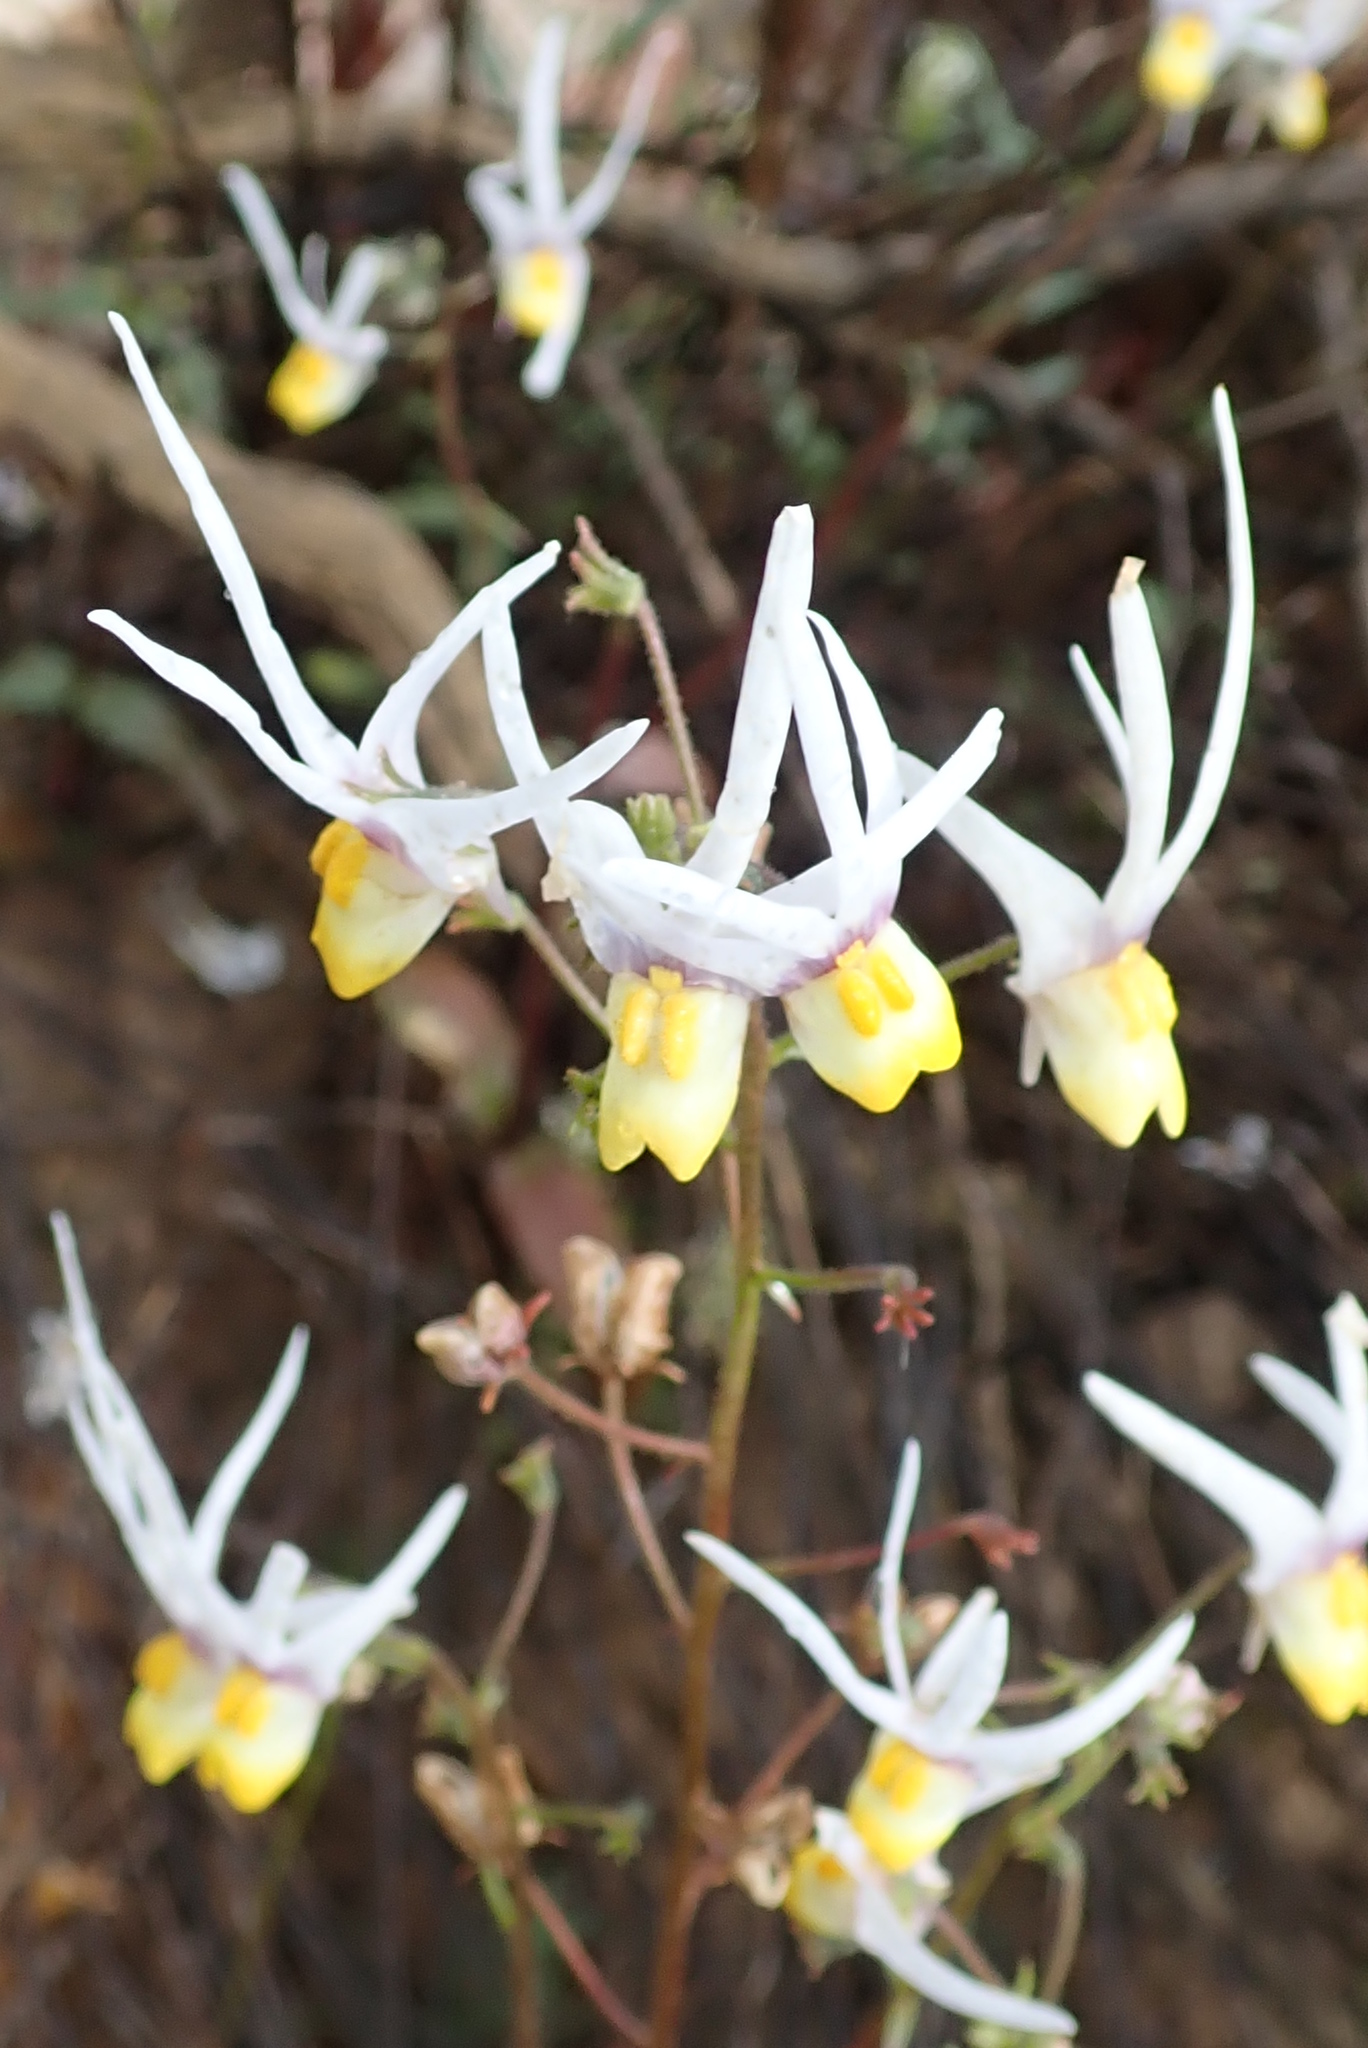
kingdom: Plantae
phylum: Tracheophyta
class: Magnoliopsida
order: Lamiales
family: Scrophulariaceae
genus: Nemesia
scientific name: Nemesia cheiranthus
